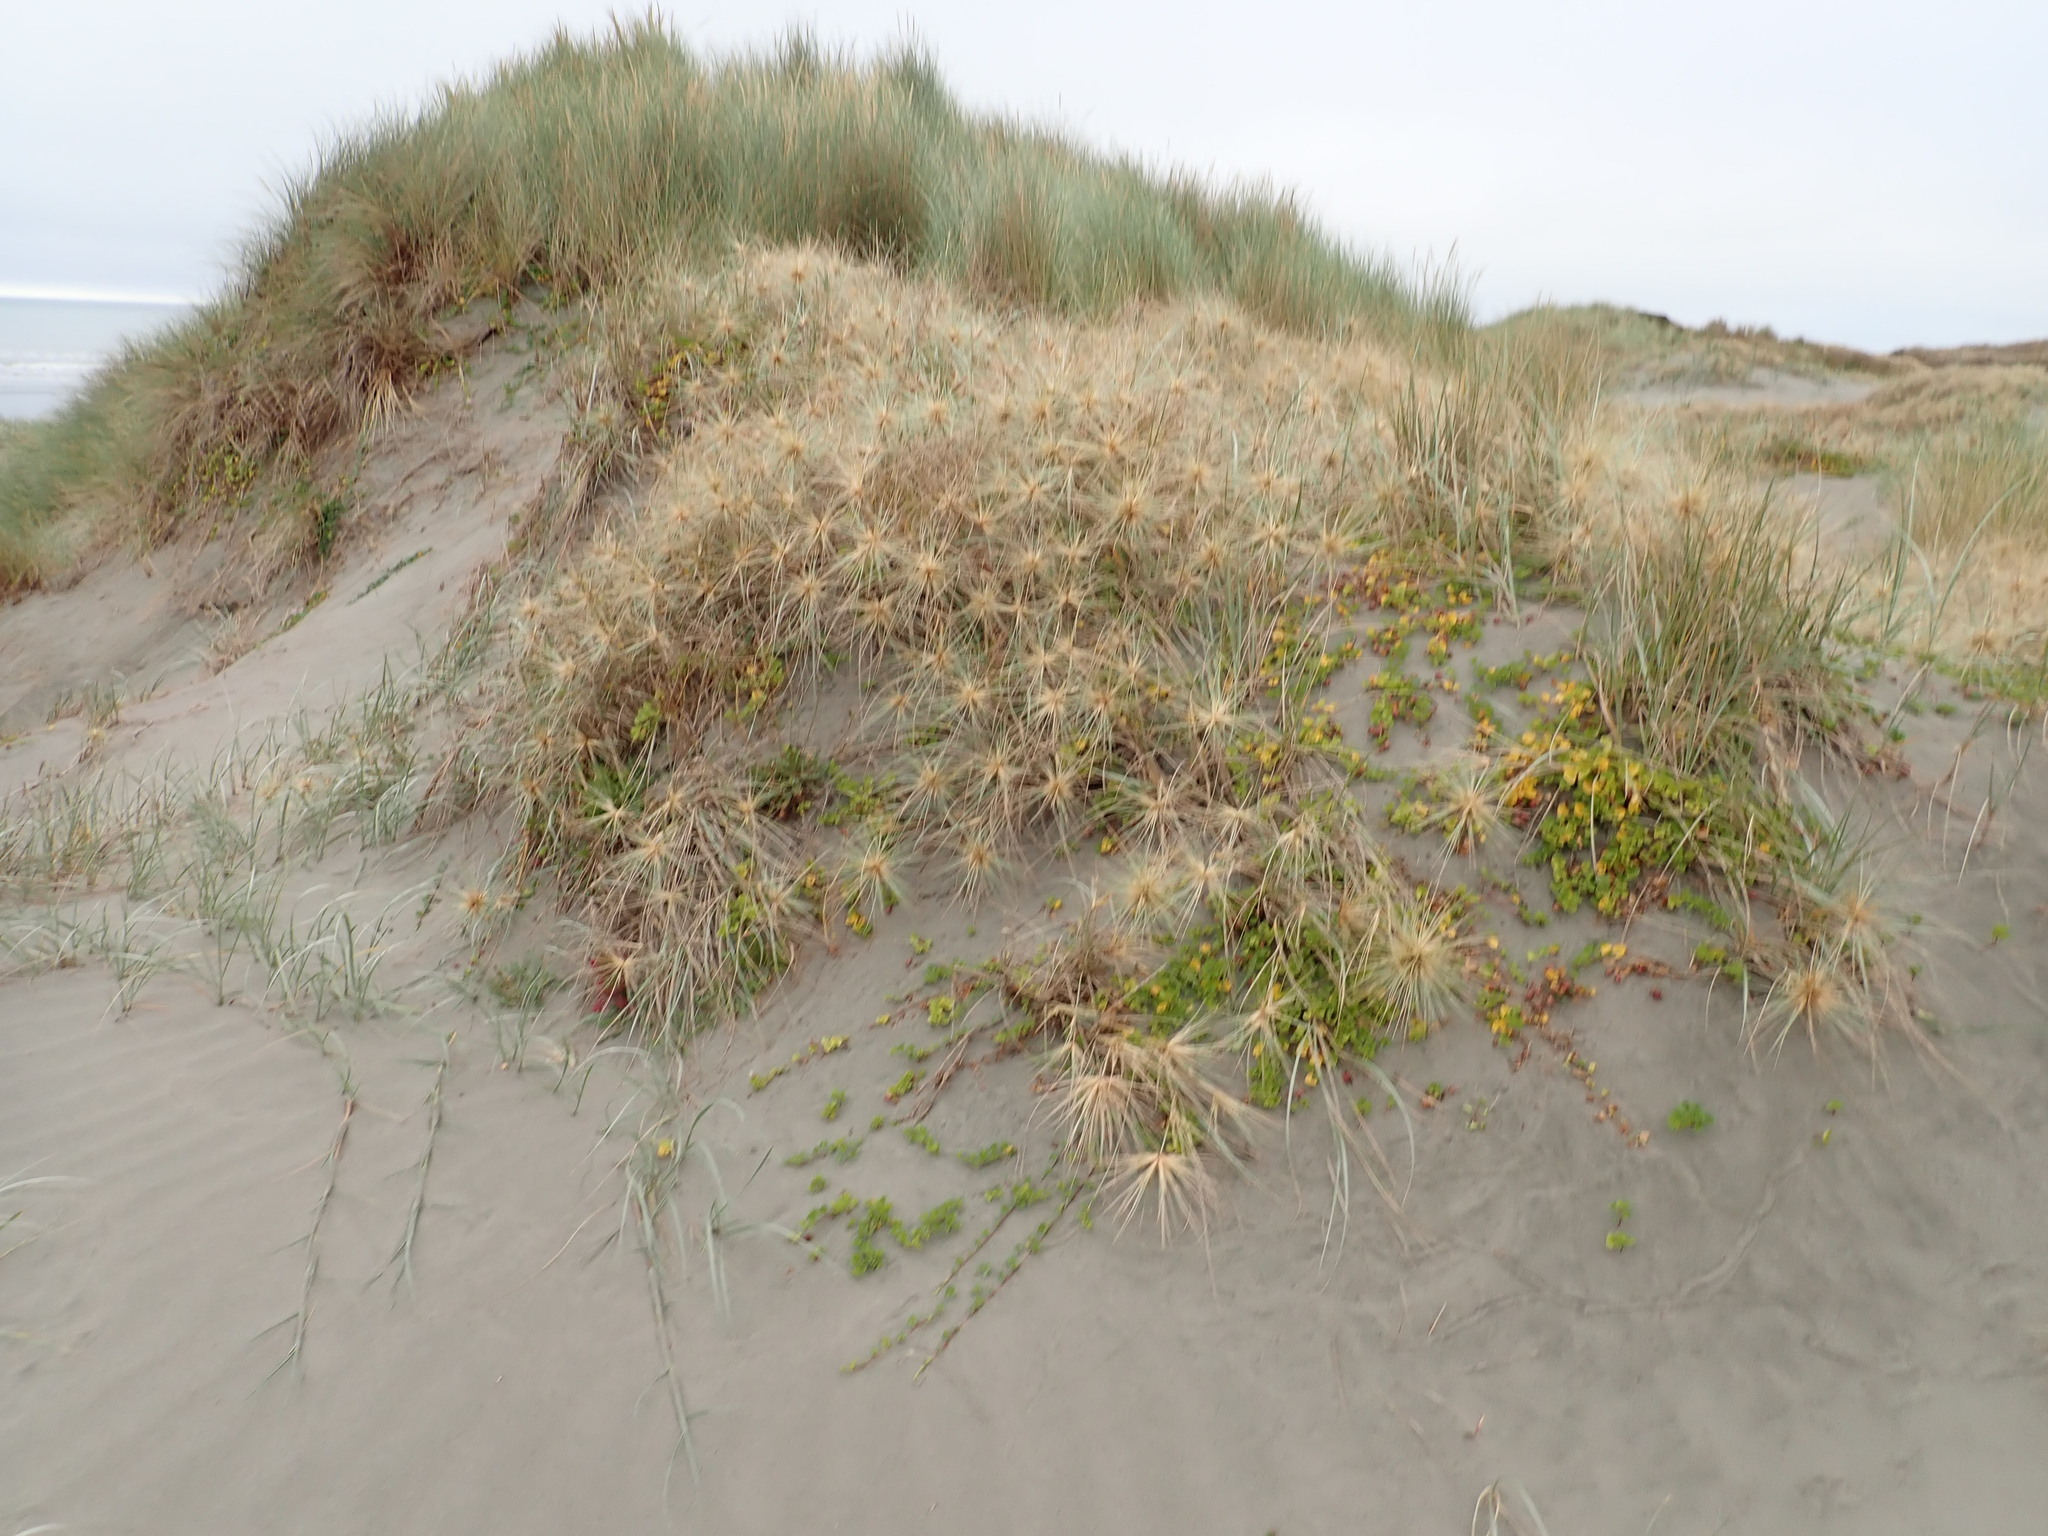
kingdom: Plantae
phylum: Tracheophyta
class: Magnoliopsida
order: Solanales
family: Convolvulaceae
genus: Calystegia
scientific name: Calystegia soldanella
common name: Sea bindweed
